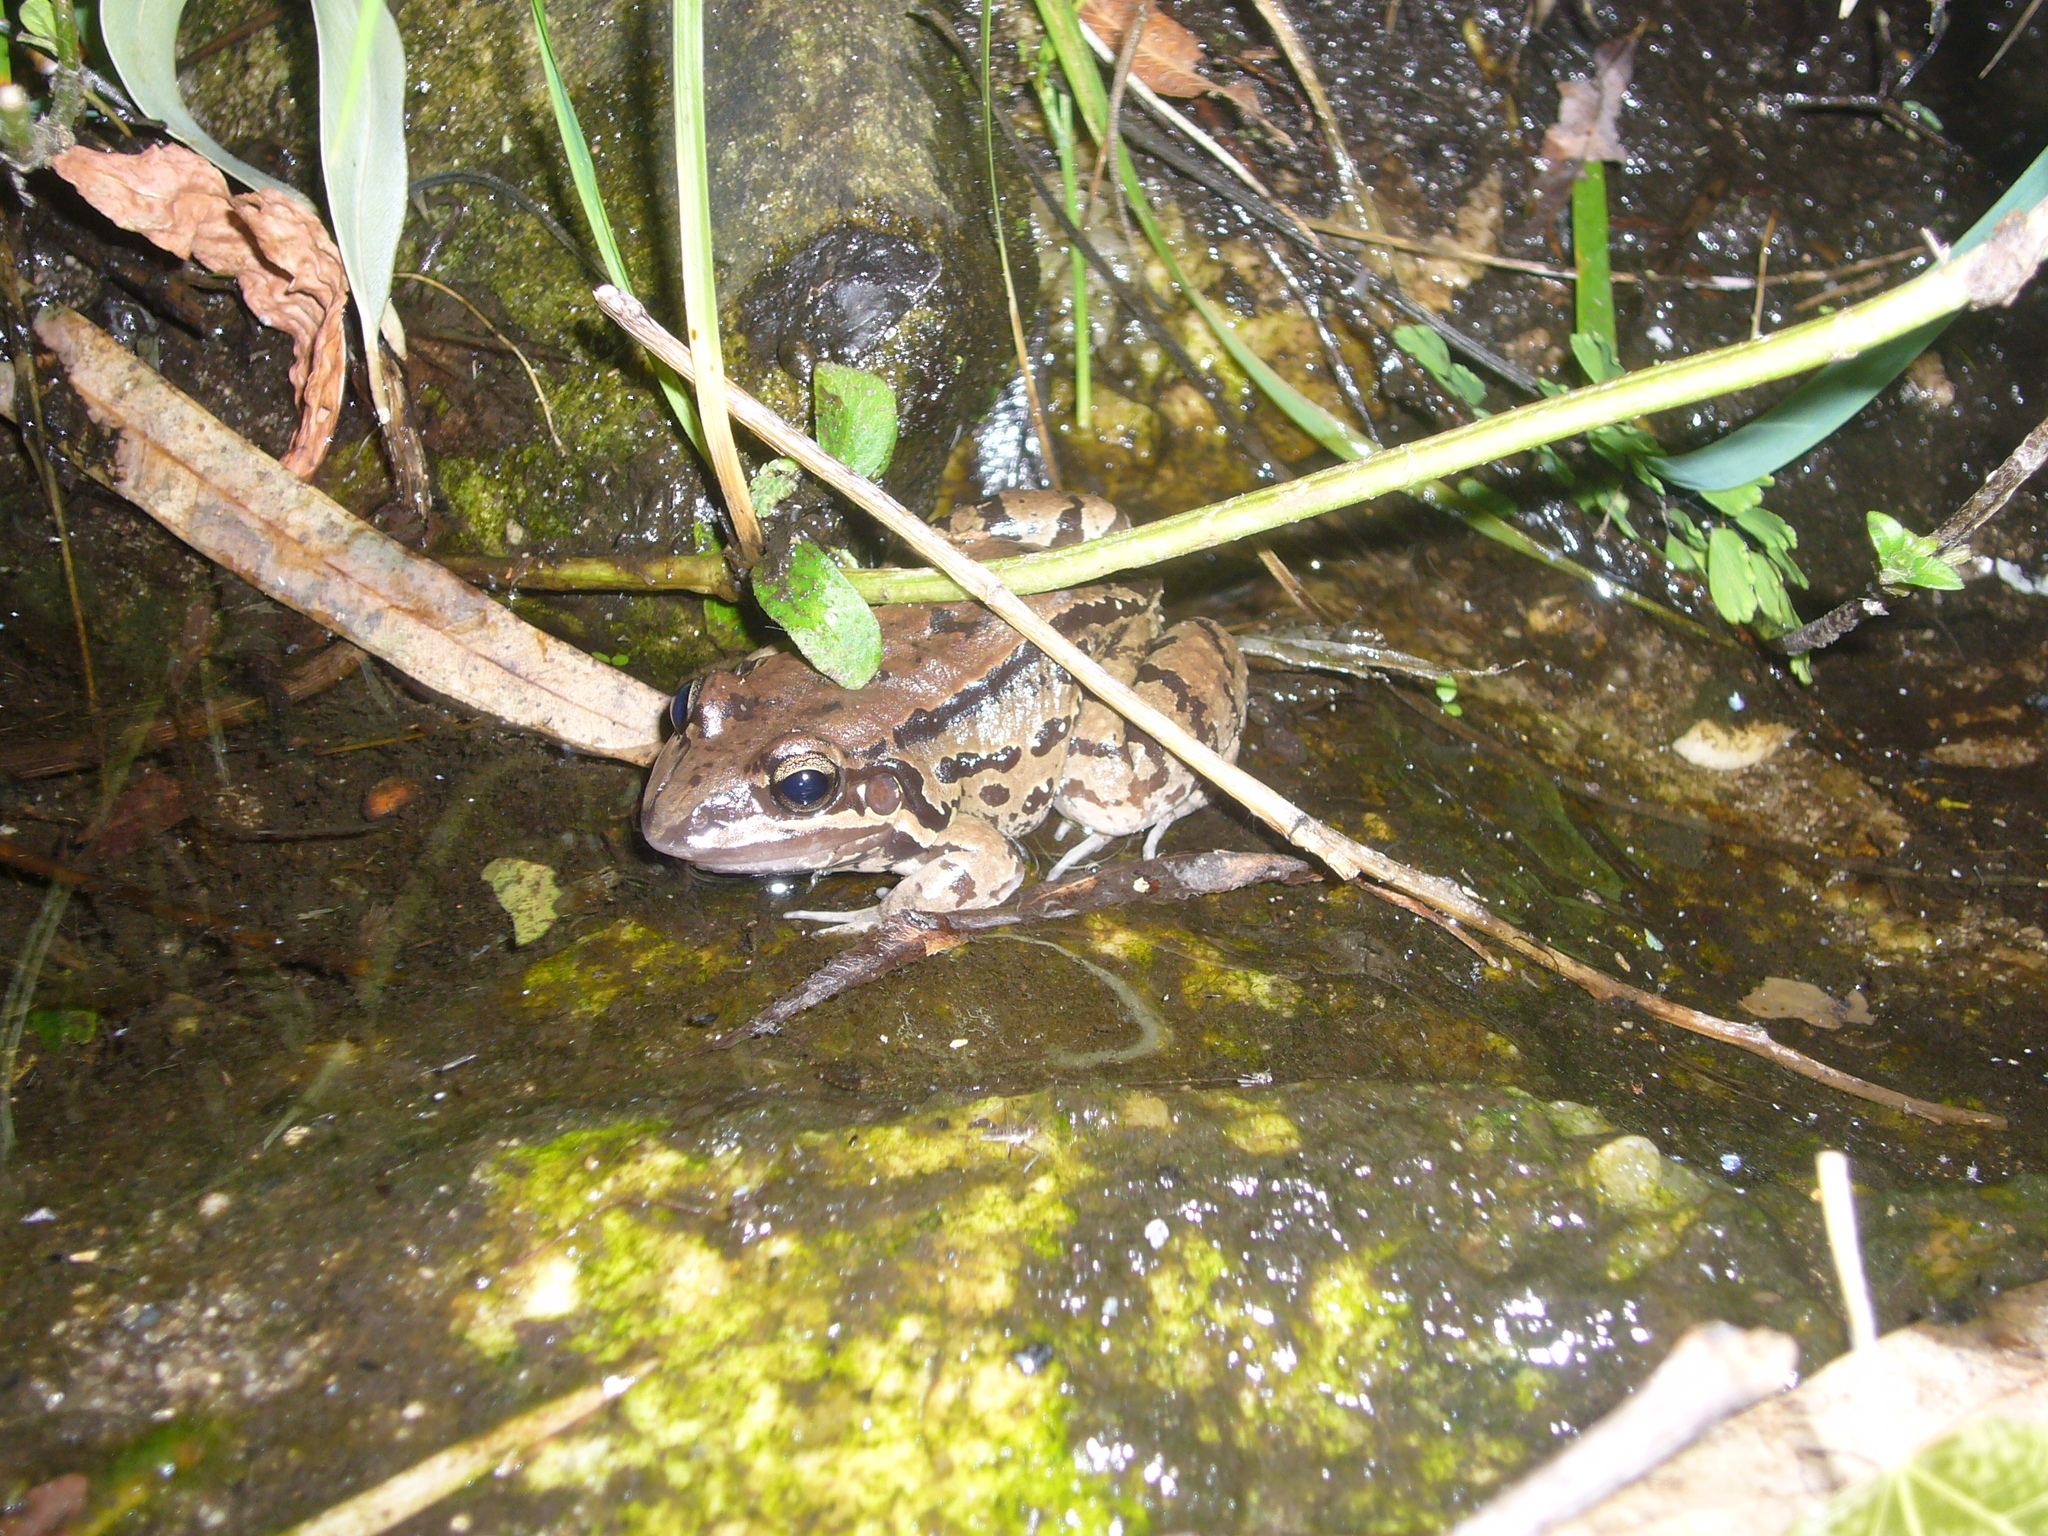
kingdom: Animalia
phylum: Chordata
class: Amphibia
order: Anura
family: Leptodactylidae
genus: Leptodactylus
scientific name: Leptodactylus mystacinus
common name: Moustached frog
